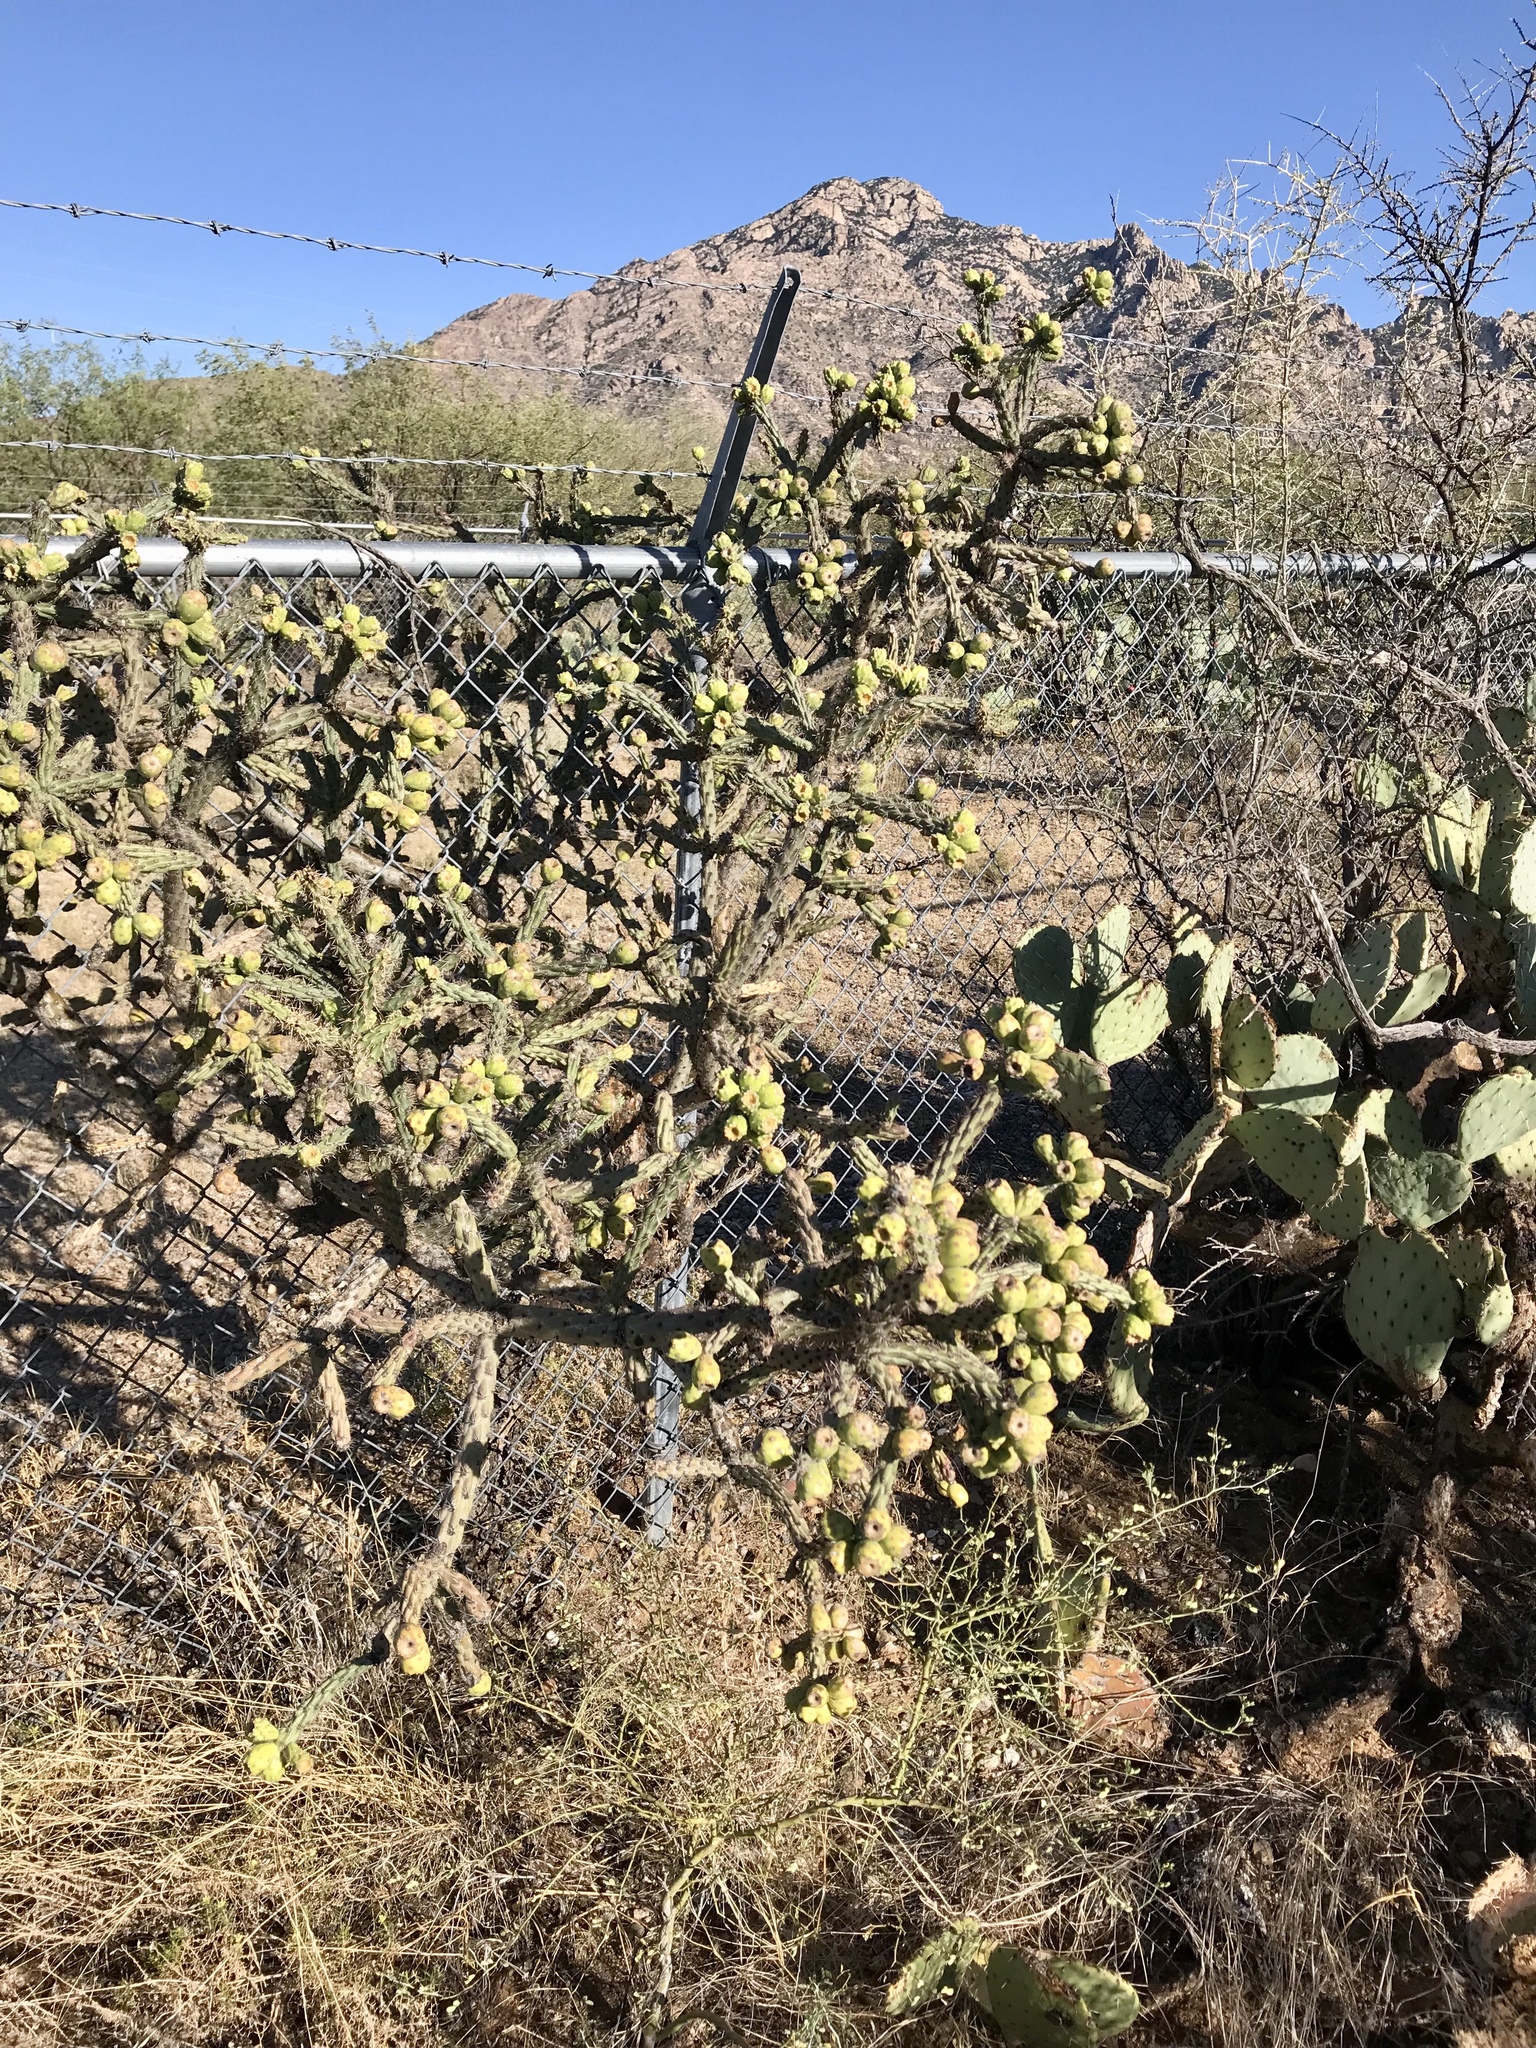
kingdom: Plantae
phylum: Tracheophyta
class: Magnoliopsida
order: Caryophyllales
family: Cactaceae
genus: Cylindropuntia
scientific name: Cylindropuntia thurberi
